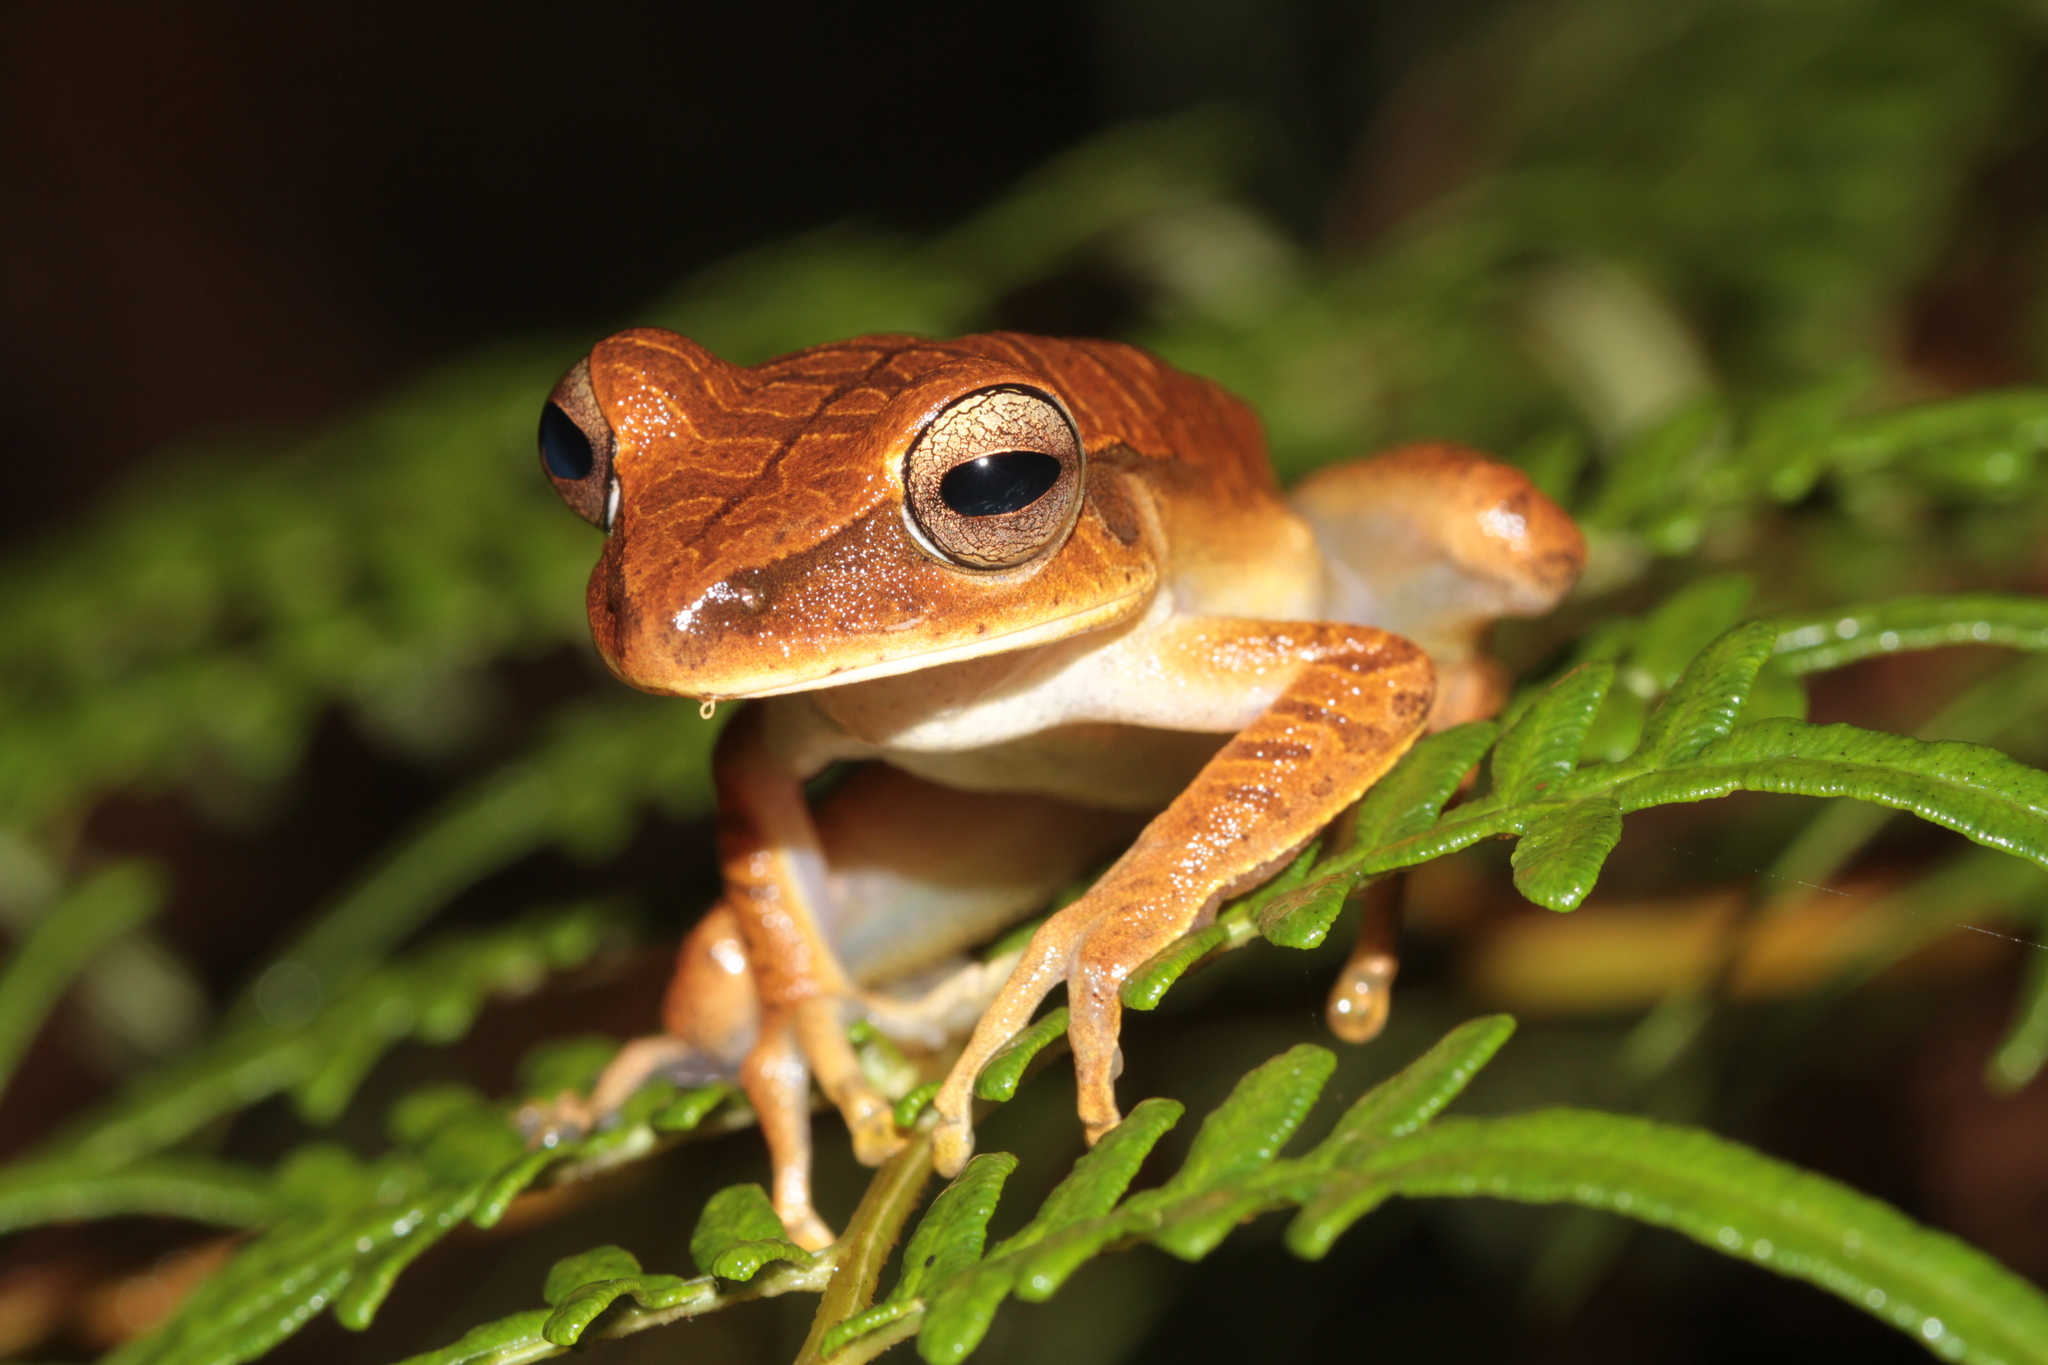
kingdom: Animalia
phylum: Chordata
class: Amphibia
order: Anura
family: Hylidae
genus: Boana
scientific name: Boana multifasciata
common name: Many-banded treefrog
